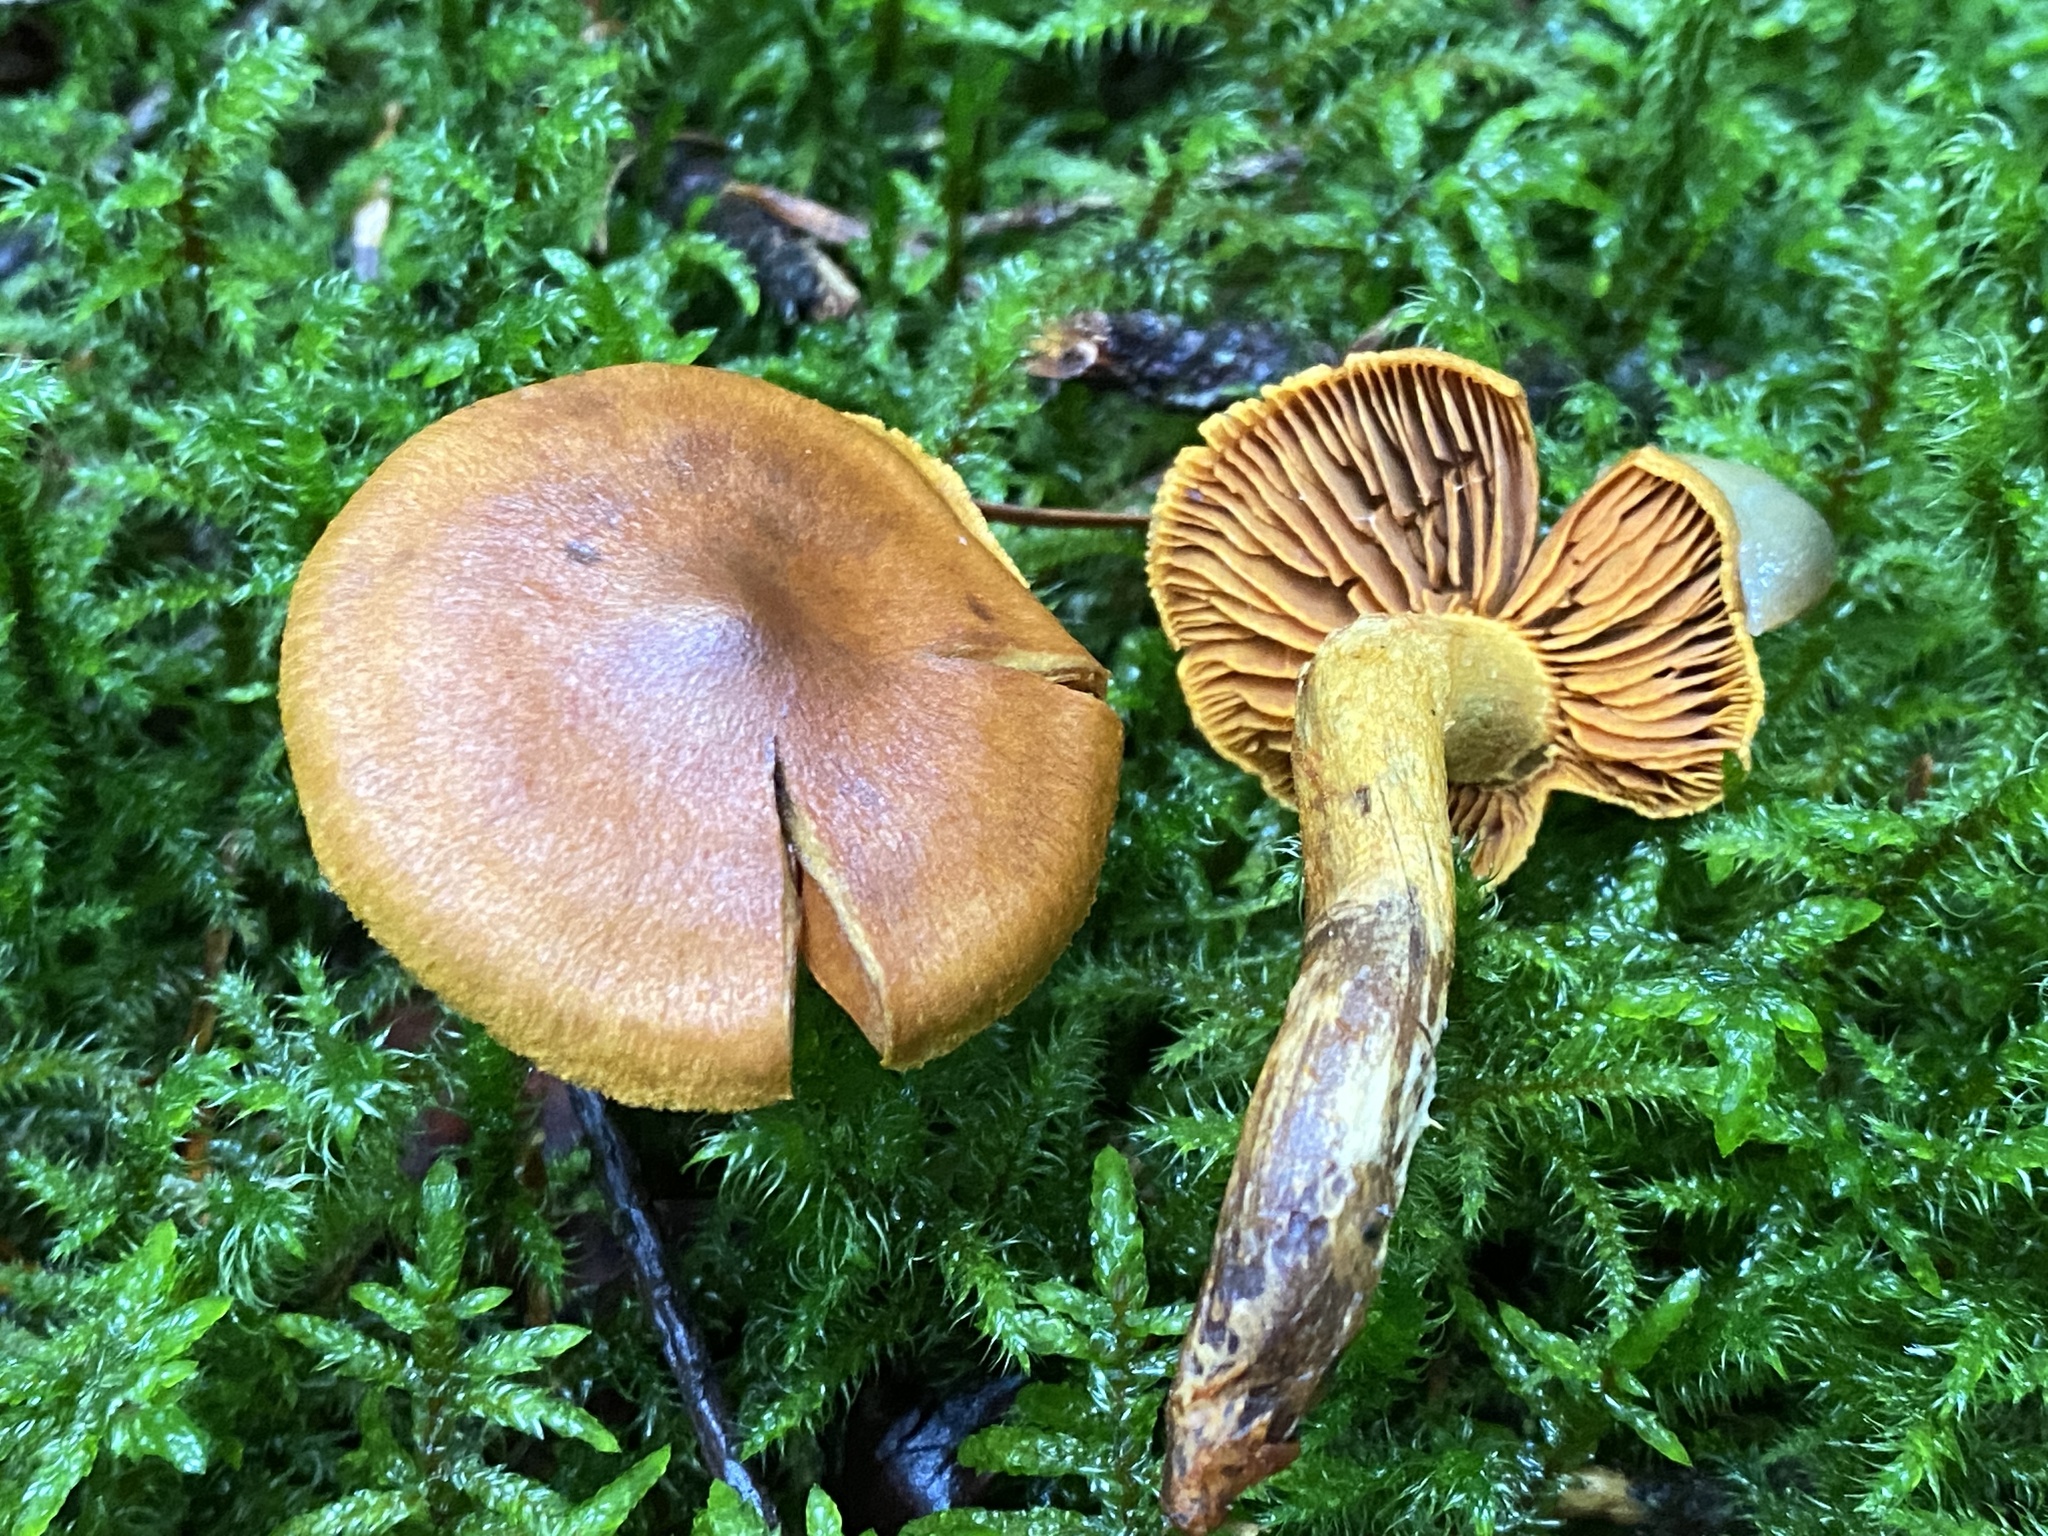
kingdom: Fungi
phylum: Basidiomycota
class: Agaricomycetes
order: Agaricales
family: Cortinariaceae
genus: Cortinarius
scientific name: Cortinarius malicorius
